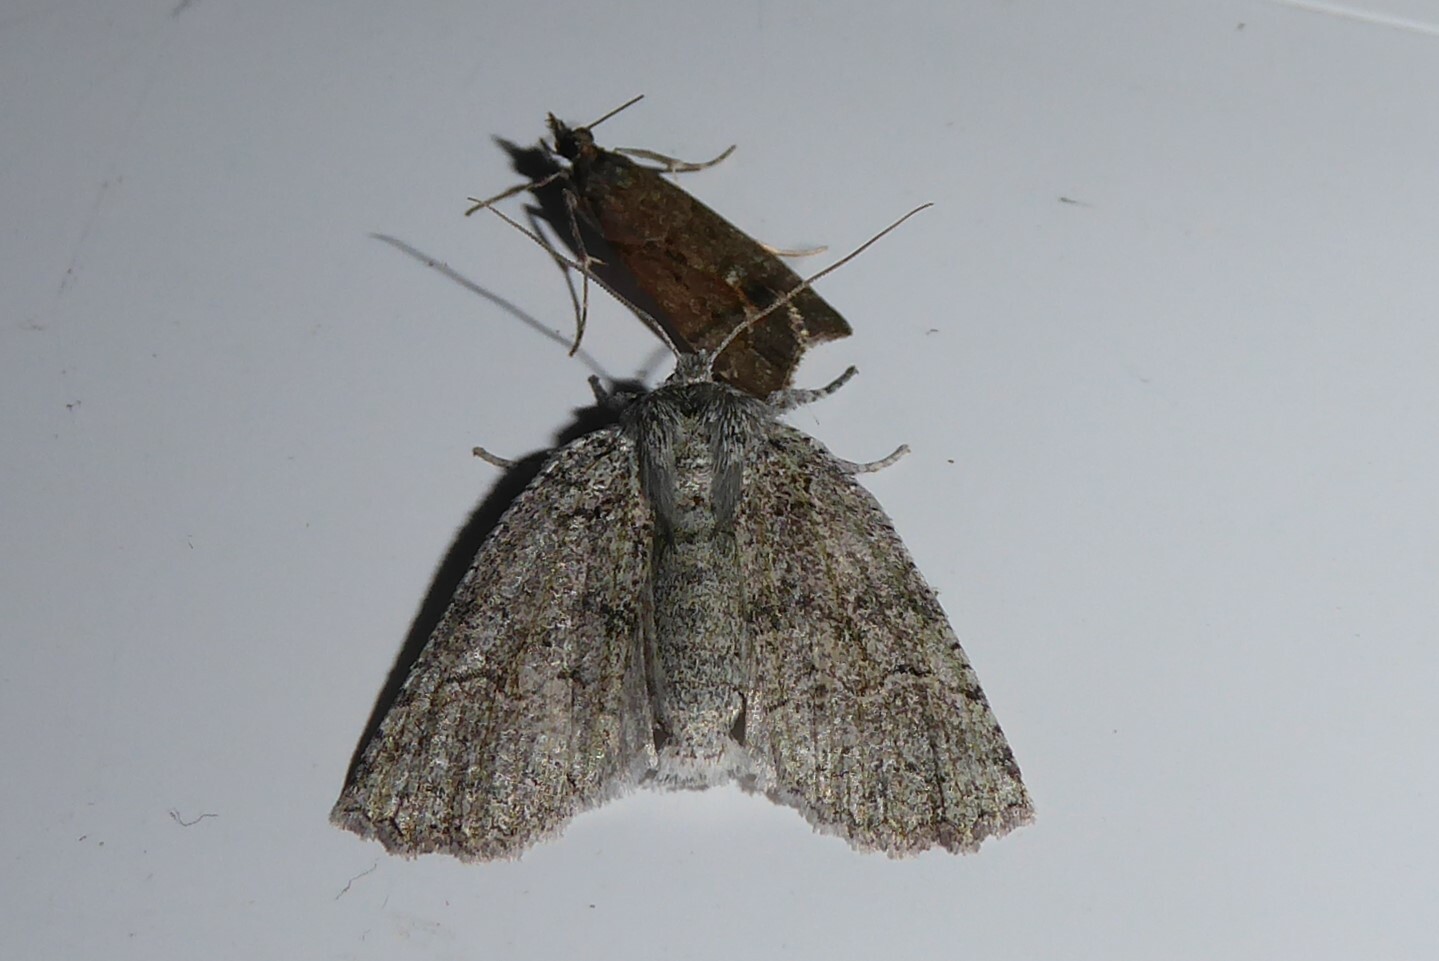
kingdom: Animalia
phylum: Arthropoda
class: Insecta
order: Lepidoptera
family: Geometridae
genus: Declana
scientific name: Declana niveata
